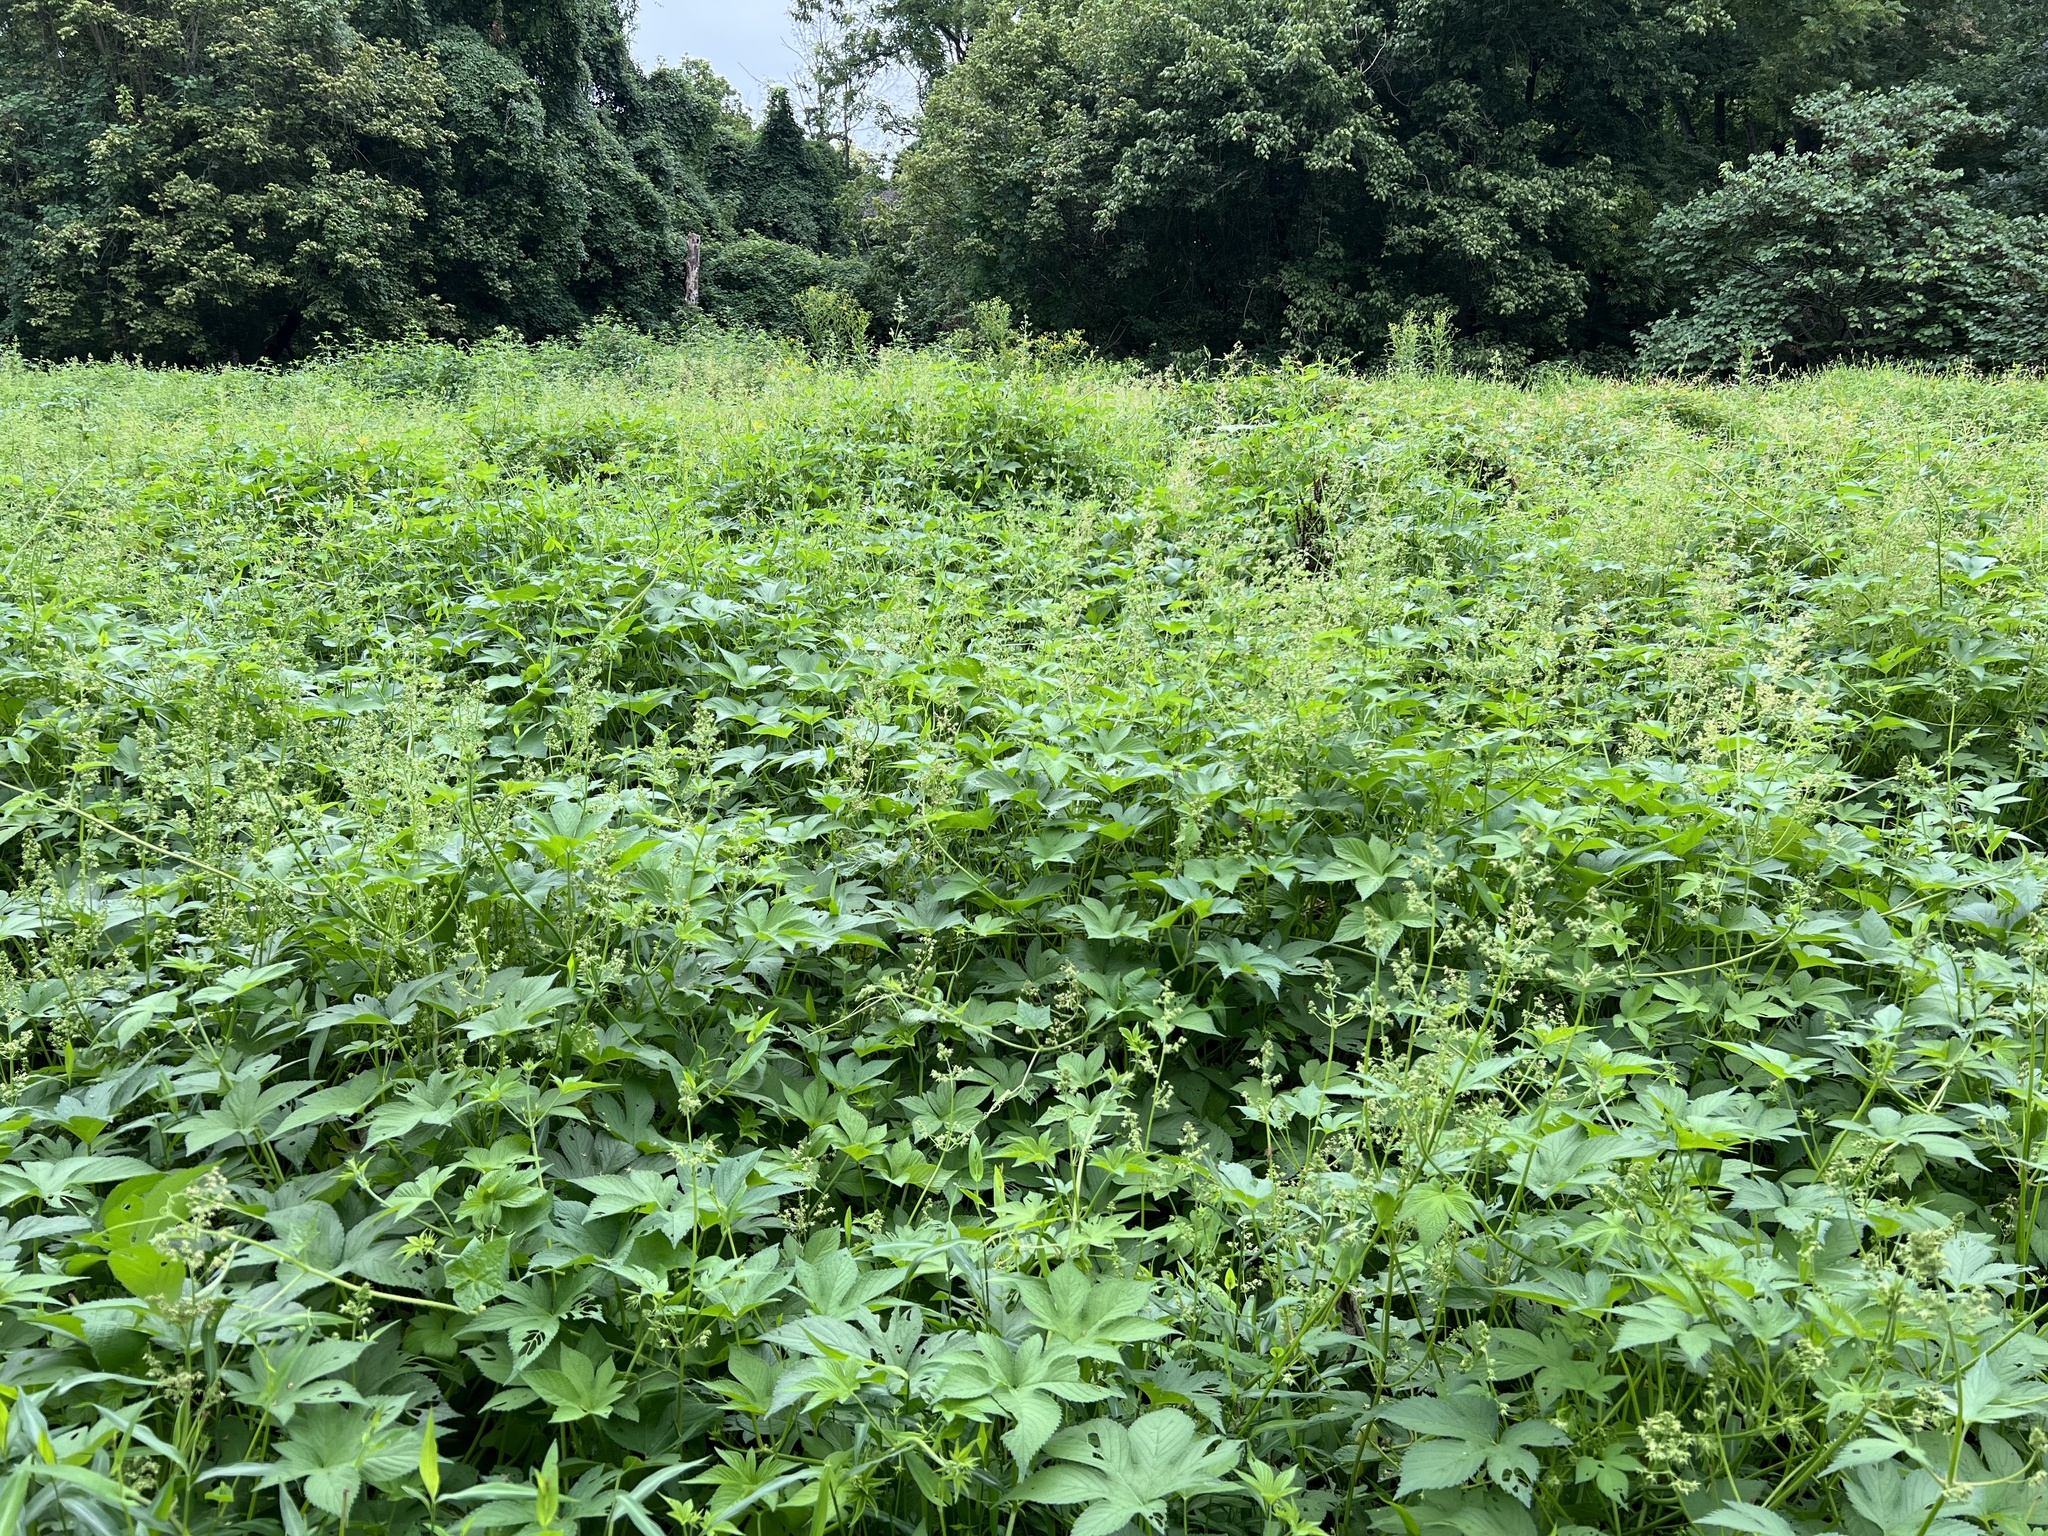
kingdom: Plantae
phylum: Tracheophyta
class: Magnoliopsida
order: Rosales
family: Cannabaceae
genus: Humulus
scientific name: Humulus scandens
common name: Japanese hop
